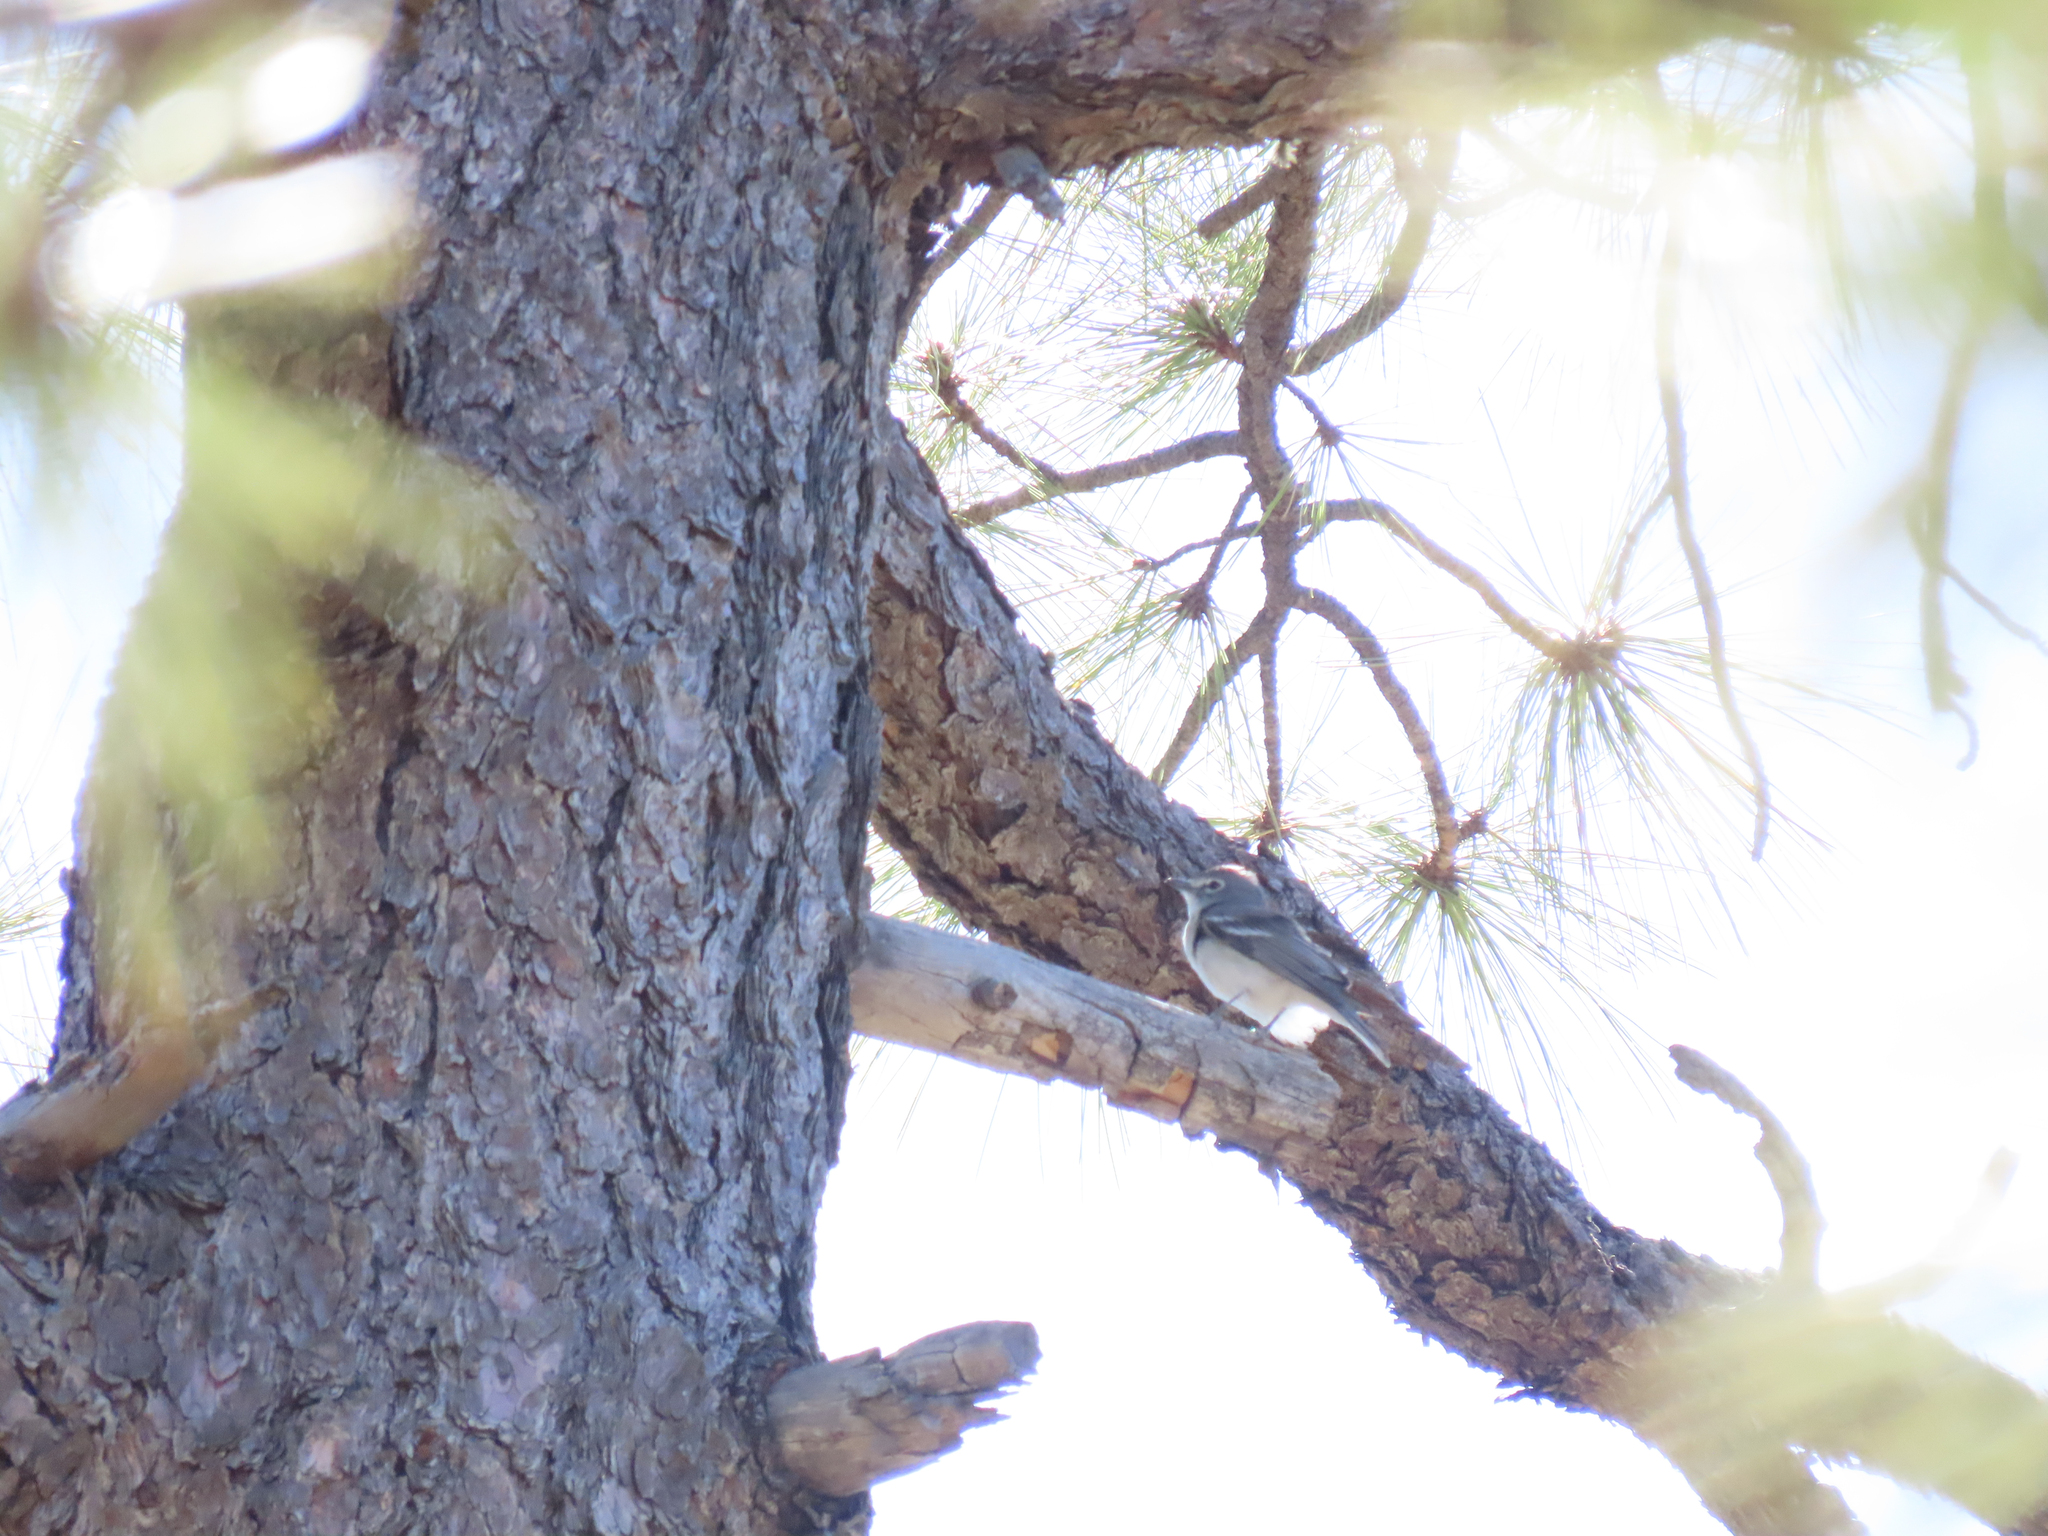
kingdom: Animalia
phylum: Chordata
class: Aves
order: Passeriformes
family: Vireonidae
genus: Vireo
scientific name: Vireo plumbeus
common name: Plumbeous vireo
